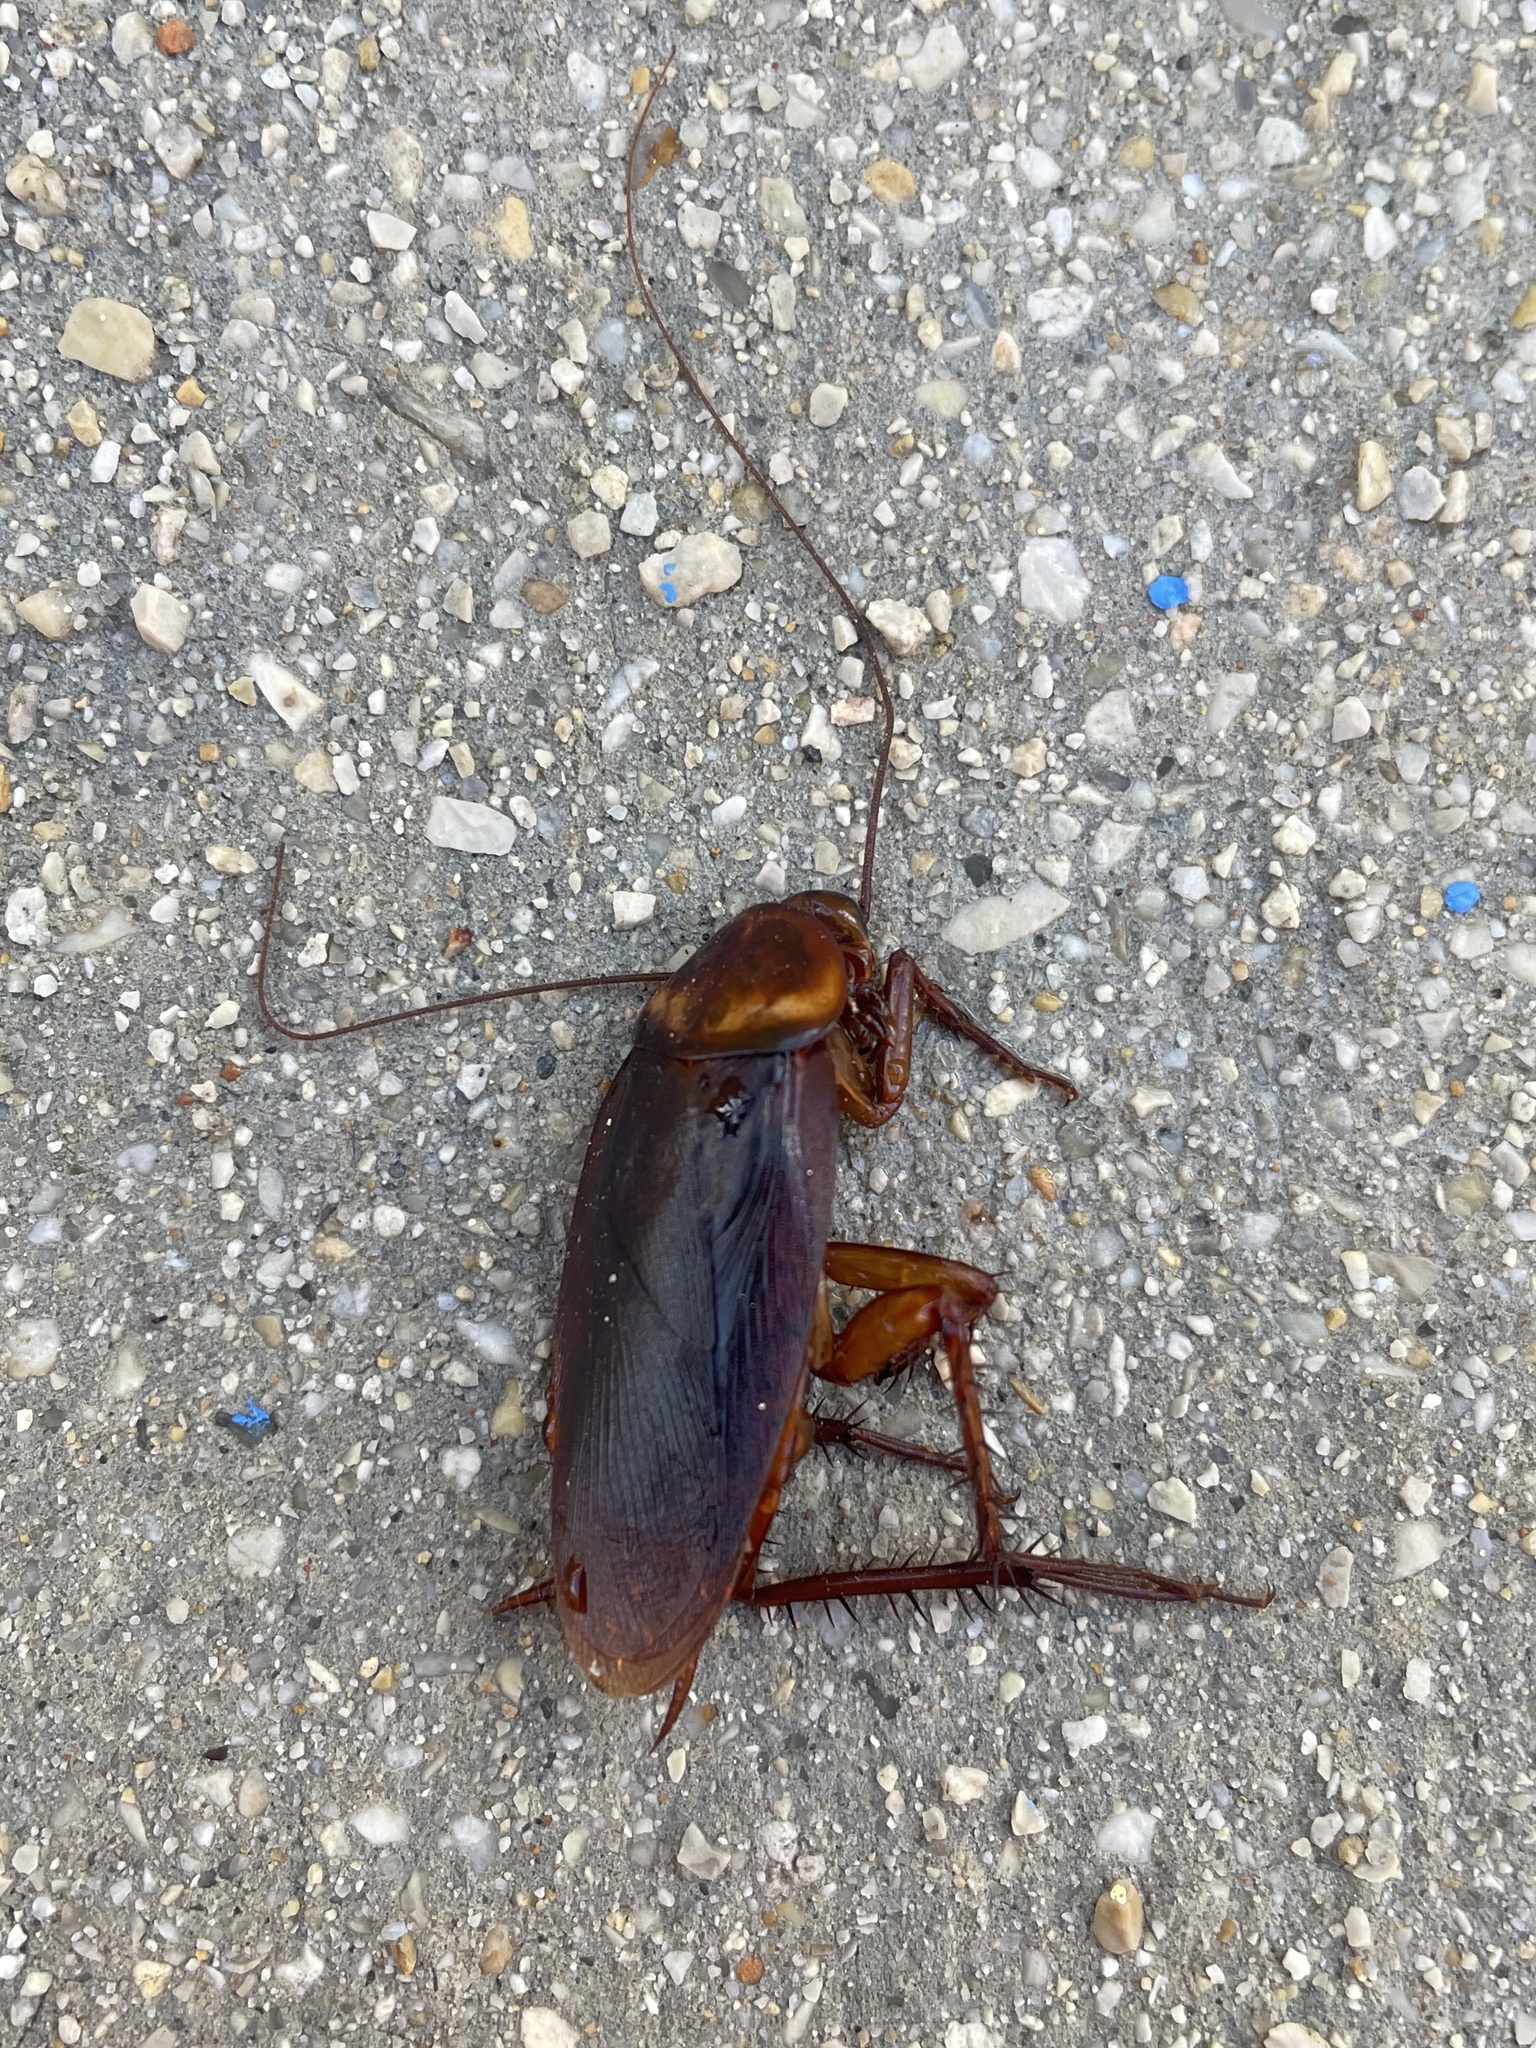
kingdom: Animalia
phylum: Arthropoda
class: Insecta
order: Blattodea
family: Blattidae
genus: Periplaneta
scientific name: Periplaneta americana
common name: American cockroach
